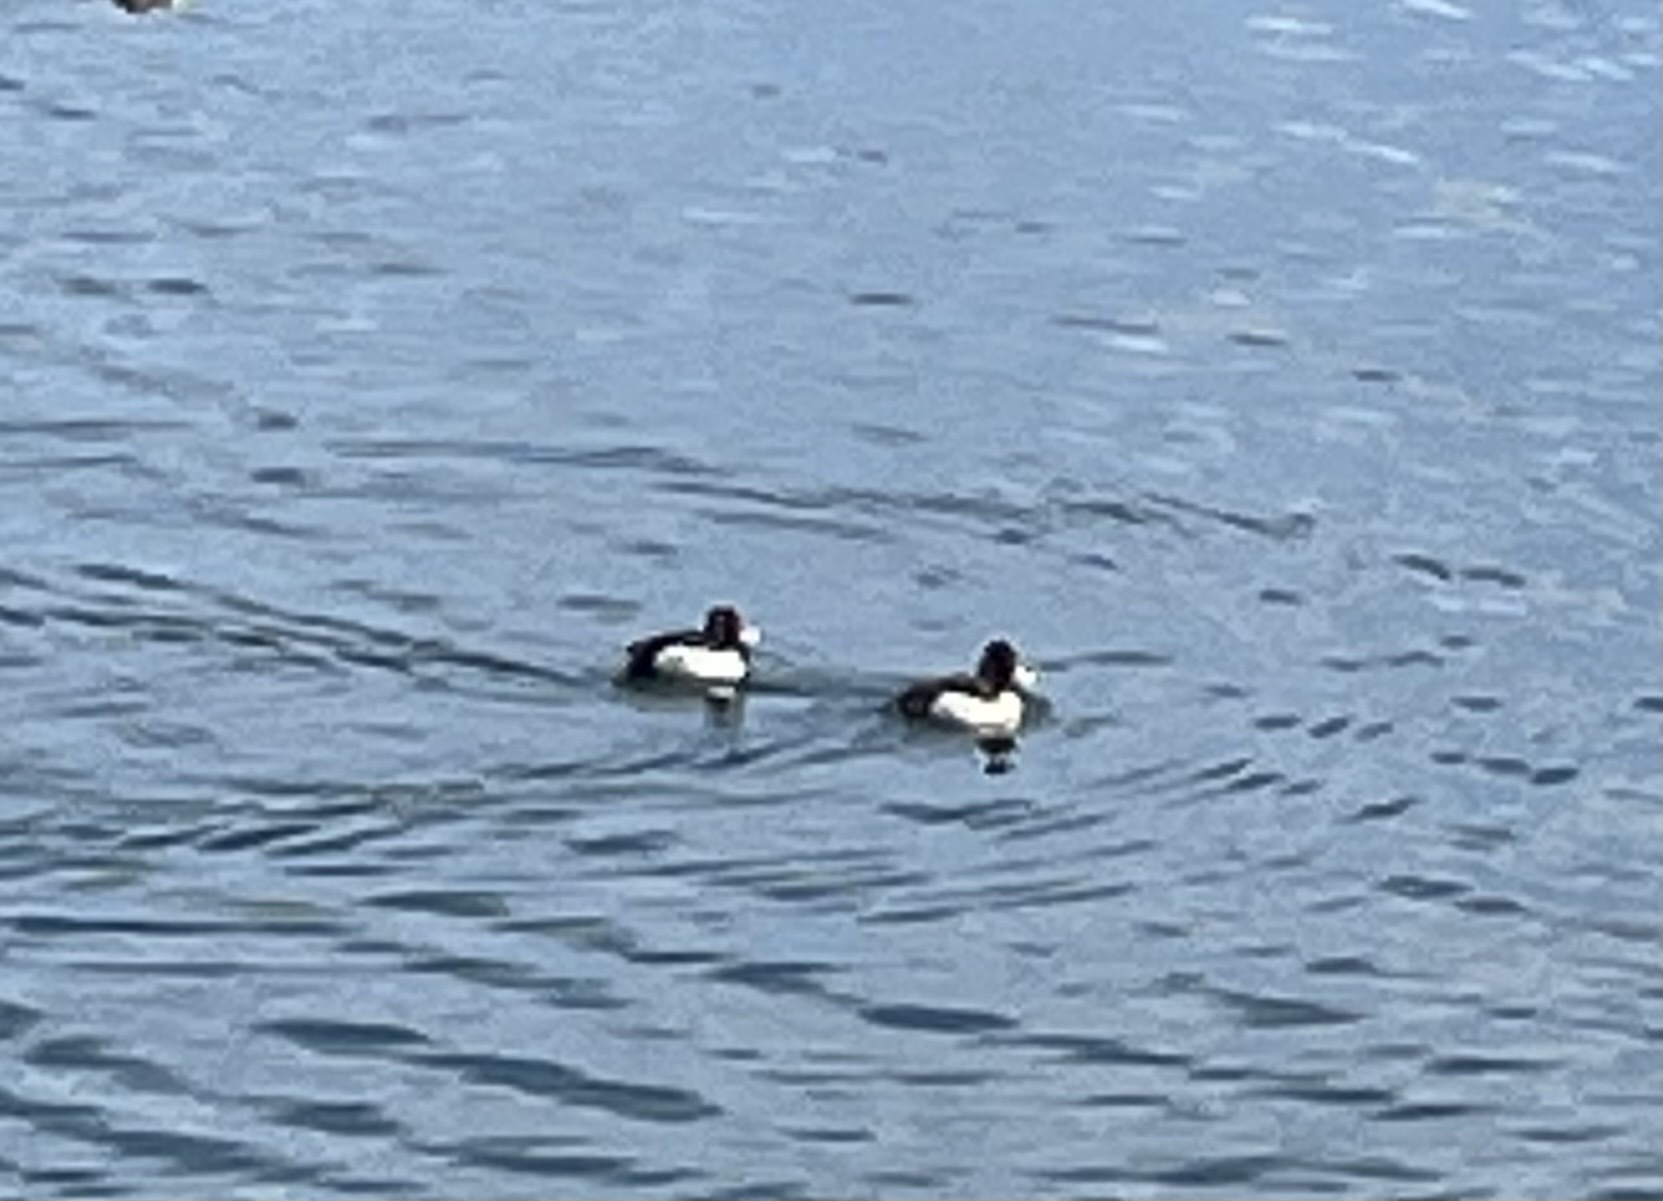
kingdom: Animalia
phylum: Chordata
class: Aves
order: Anseriformes
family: Anatidae
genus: Aythya
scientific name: Aythya collaris
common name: Ring-necked duck
